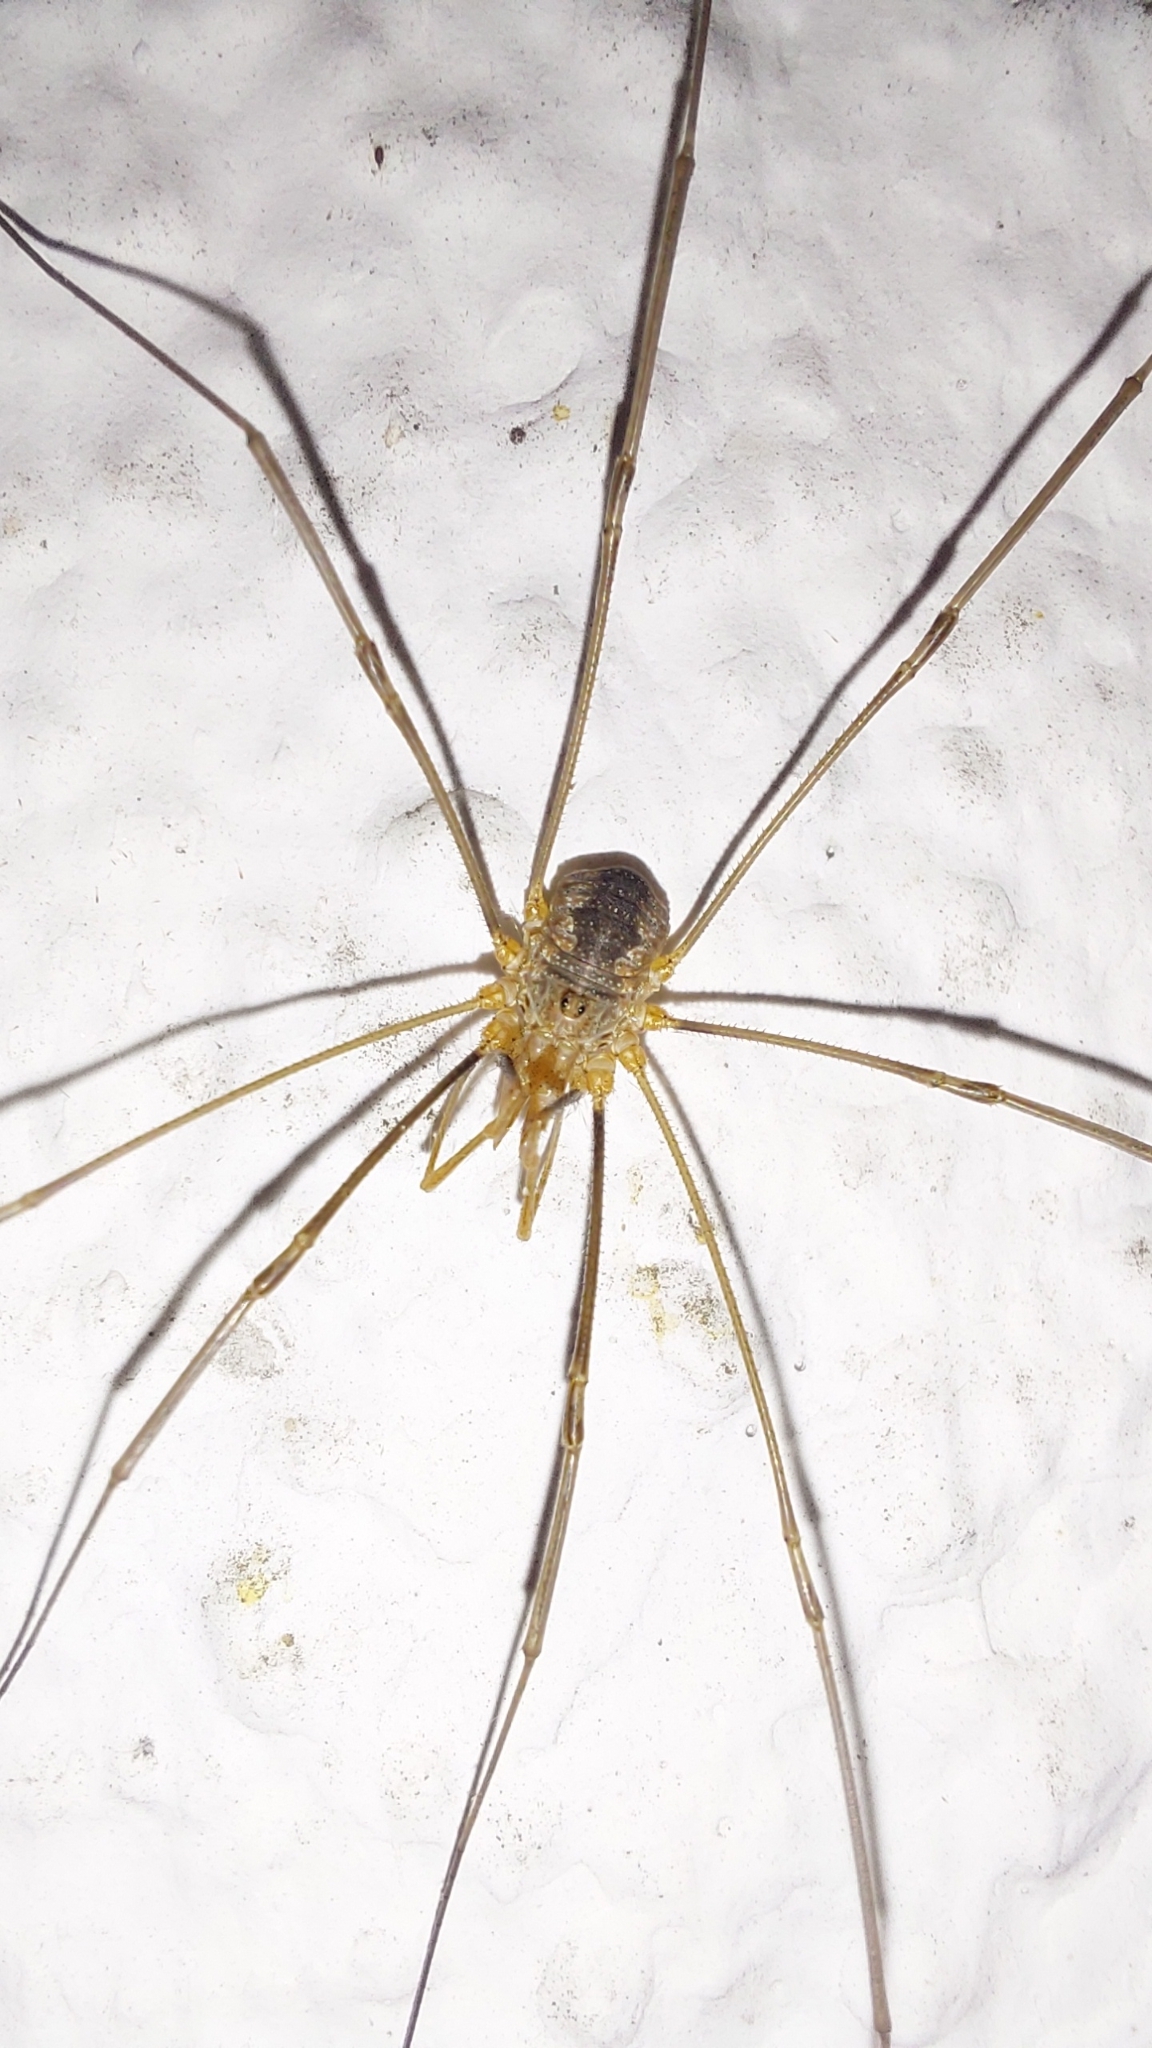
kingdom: Animalia
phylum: Arthropoda
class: Arachnida
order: Opiliones
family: Phalangiidae
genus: Phalangium
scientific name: Phalangium opilio
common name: Daddy longleg
